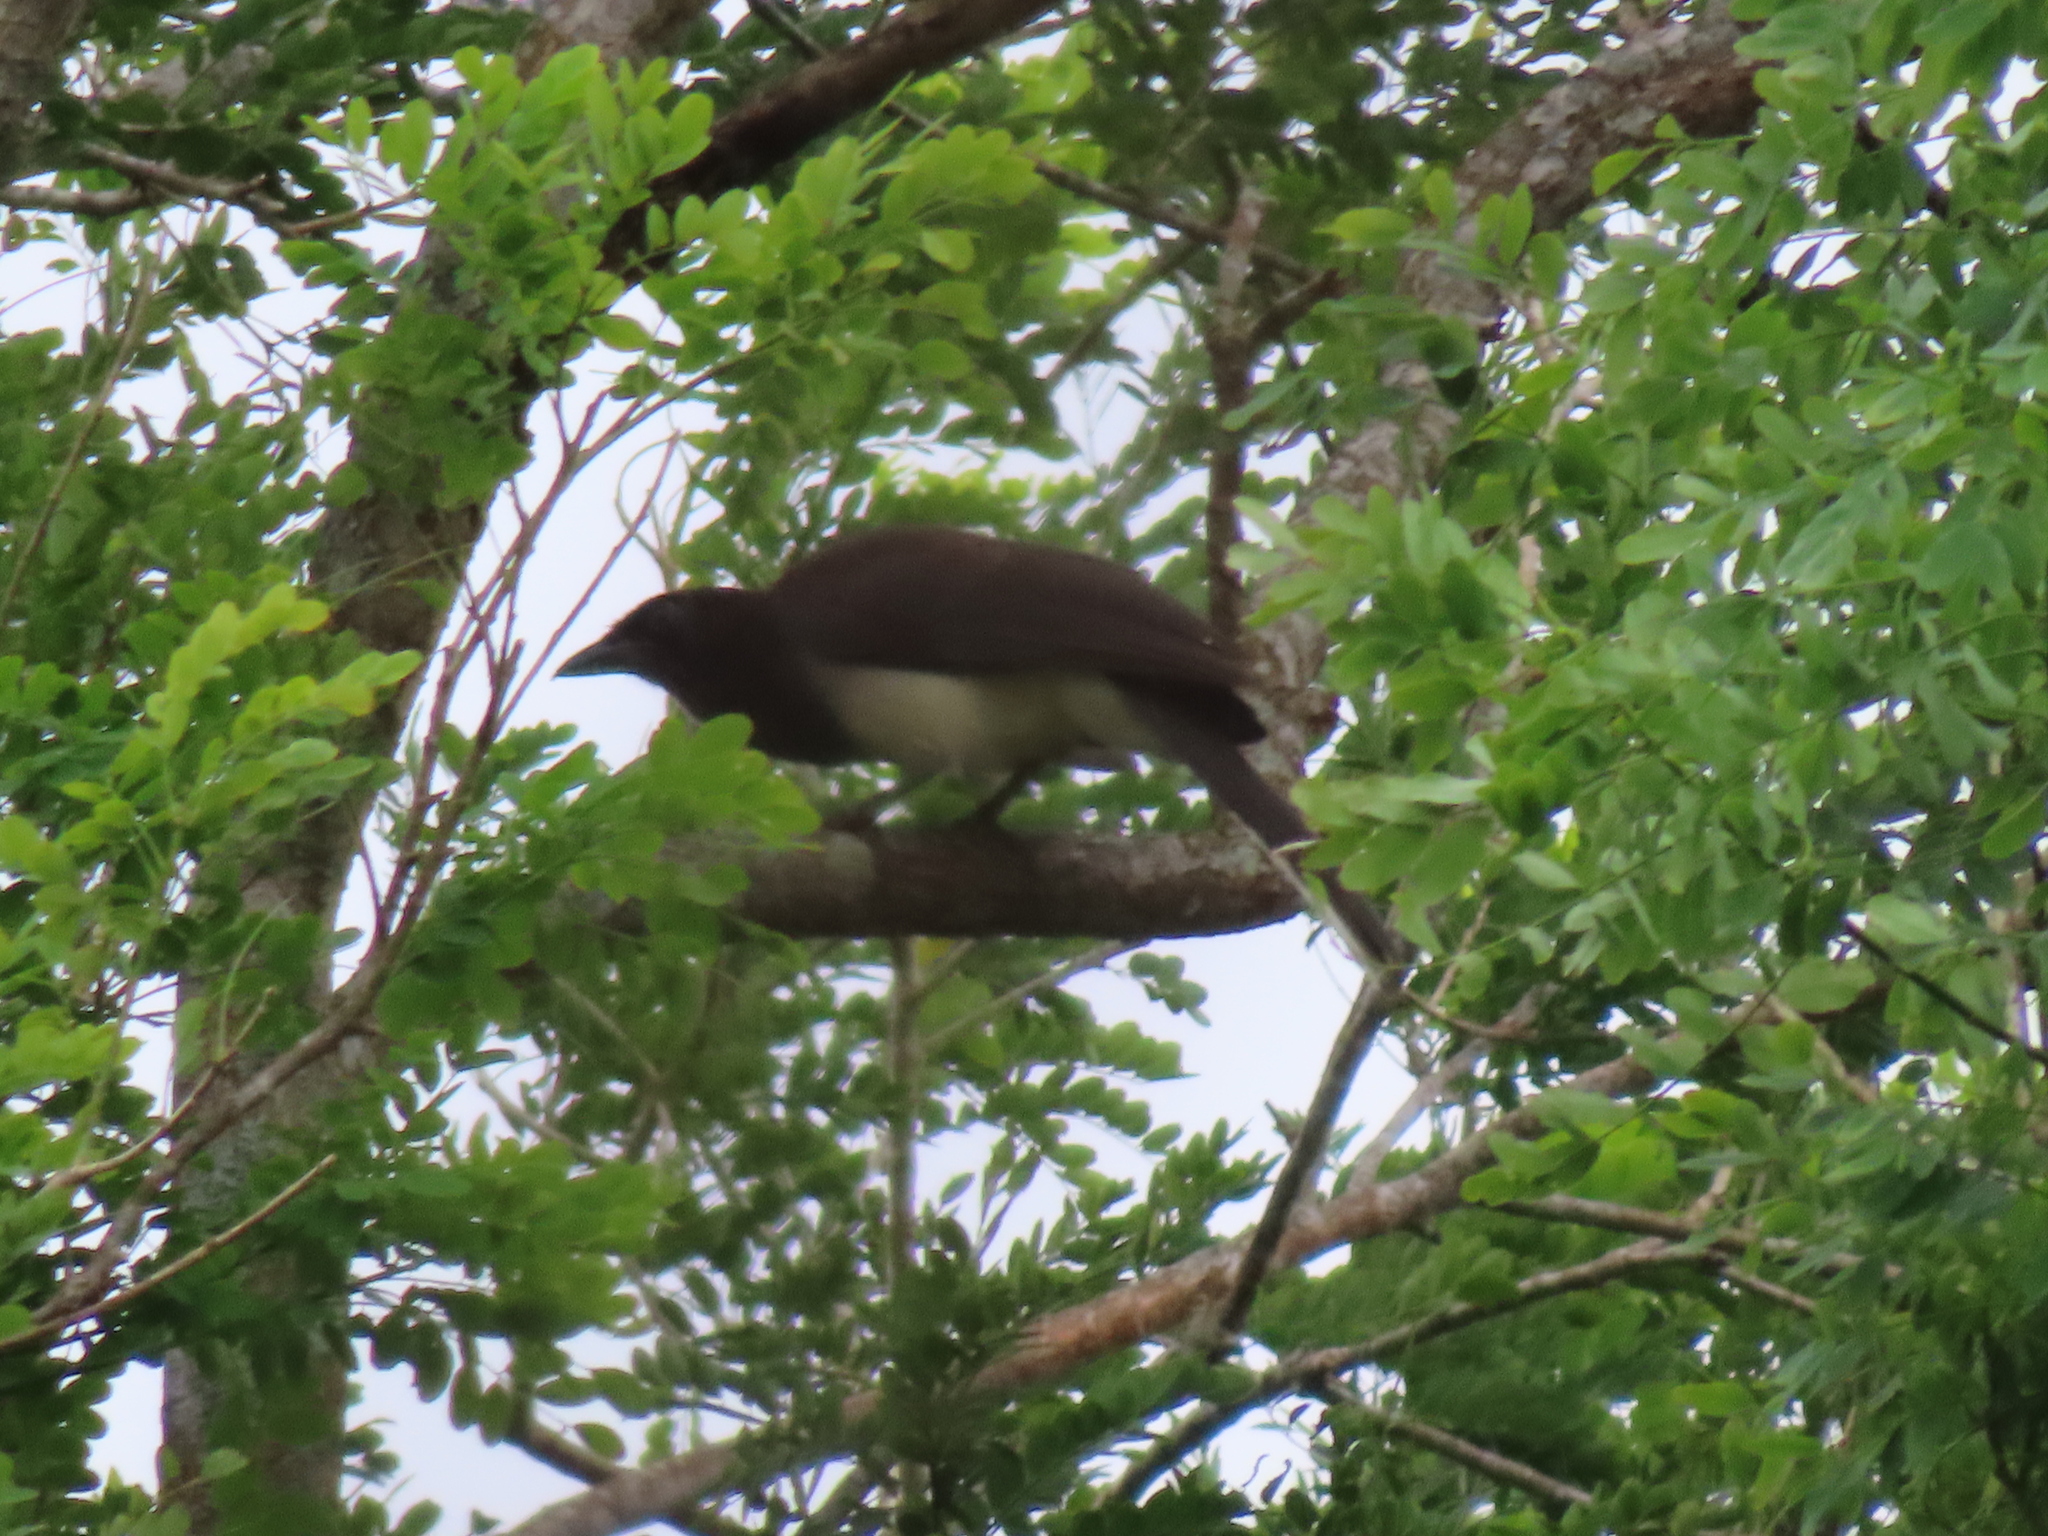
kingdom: Animalia
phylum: Chordata
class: Aves
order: Passeriformes
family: Corvidae
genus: Psilorhinus
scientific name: Psilorhinus morio
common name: Brown jay
